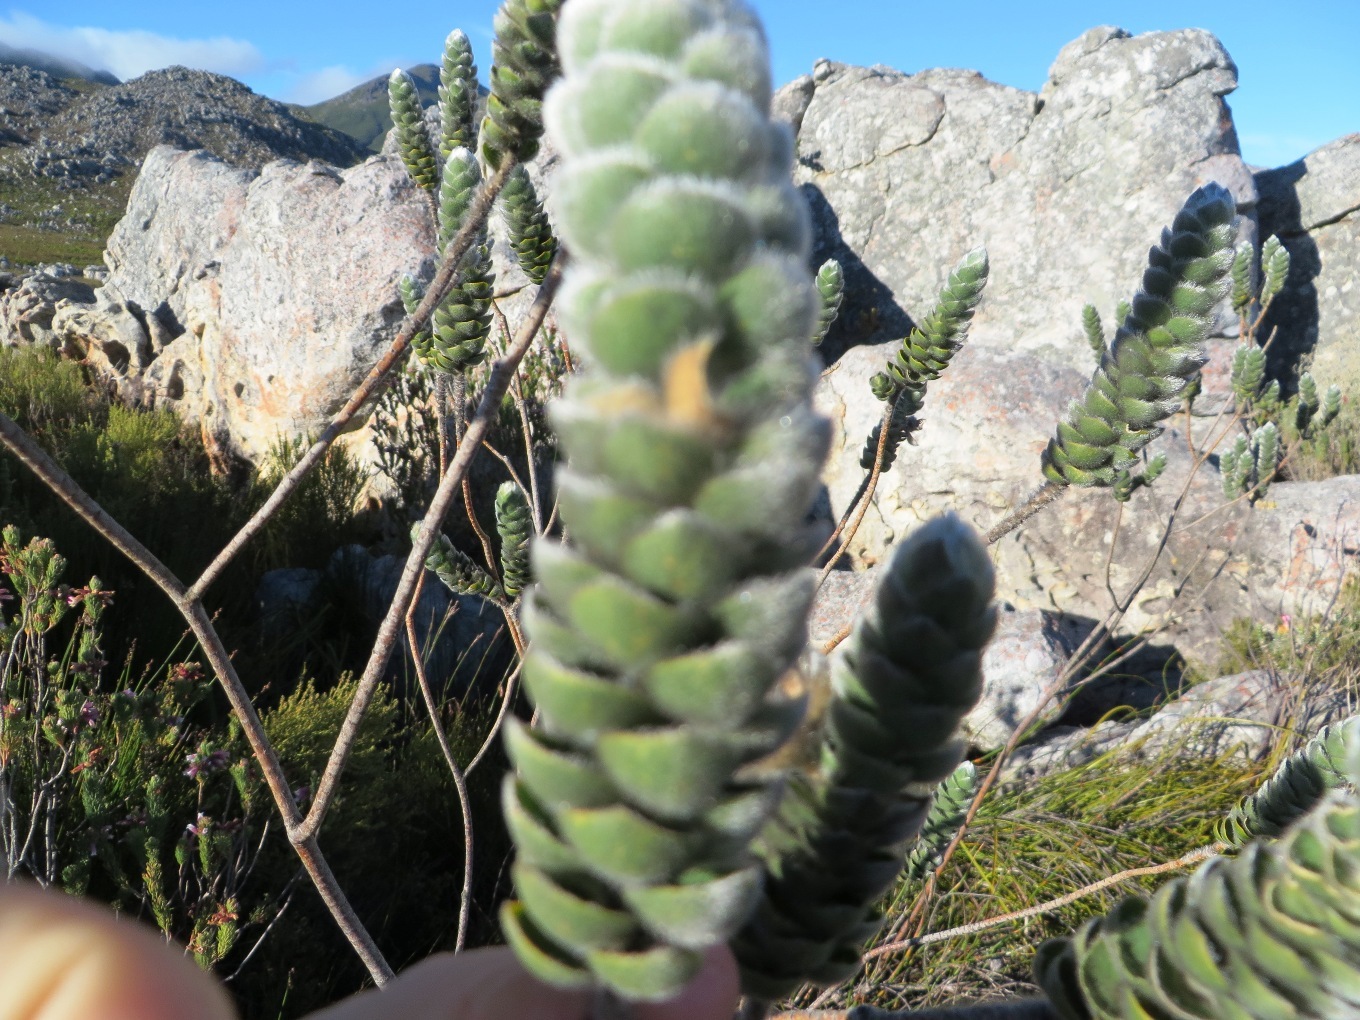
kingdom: Plantae
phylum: Tracheophyta
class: Magnoliopsida
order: Fabales
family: Fabaceae
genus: Liparia
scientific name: Liparia vestita
